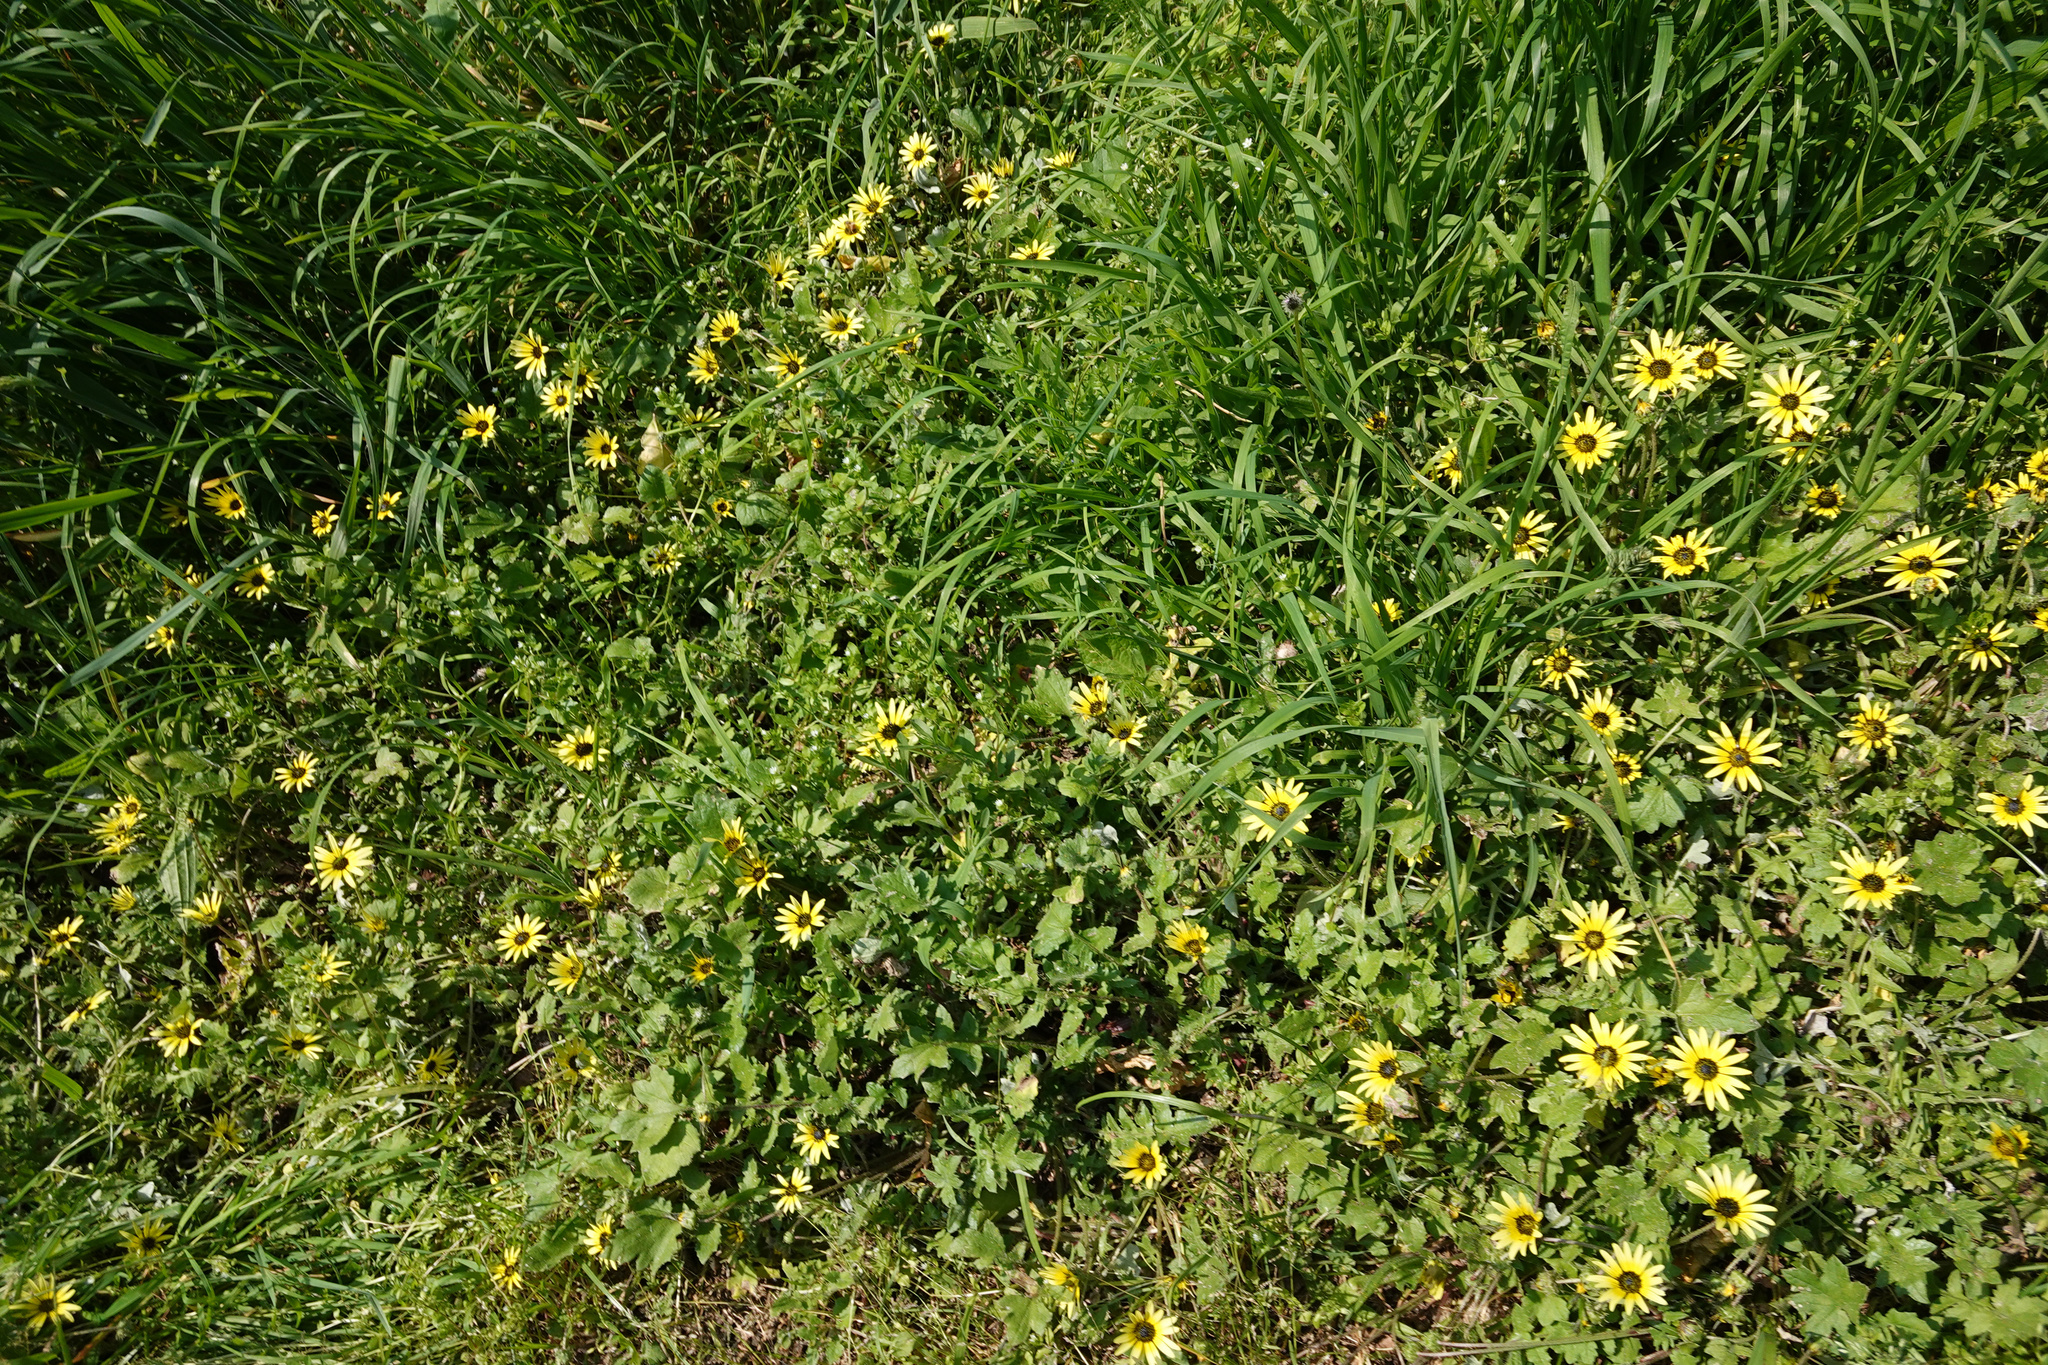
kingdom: Plantae
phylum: Tracheophyta
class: Magnoliopsida
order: Asterales
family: Asteraceae
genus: Arctotheca
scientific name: Arctotheca calendula
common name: Capeweed
